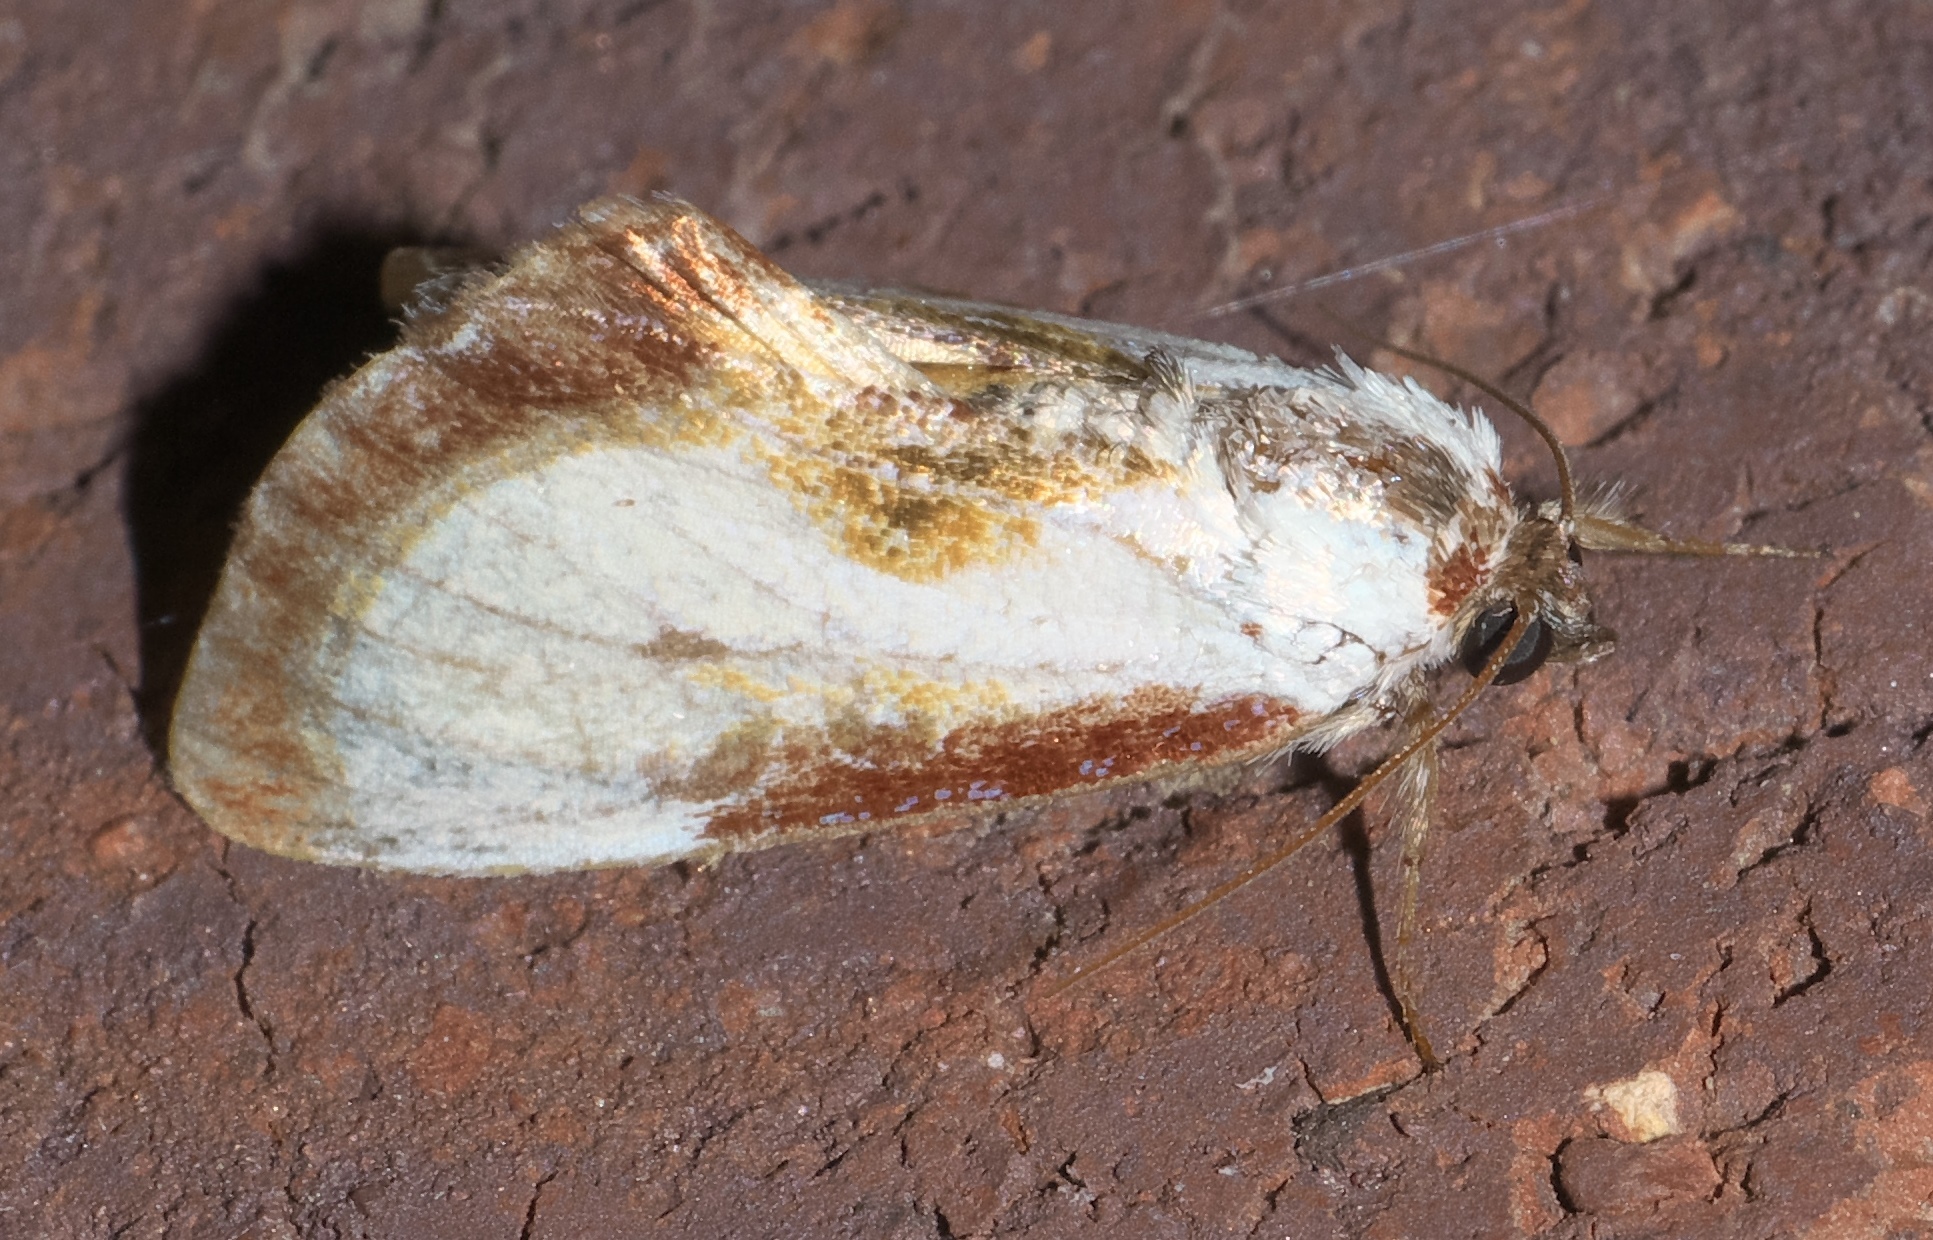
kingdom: Animalia
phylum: Arthropoda
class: Insecta
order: Lepidoptera
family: Noctuidae
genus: Eudryas
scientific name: Eudryas grata
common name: Beautiful wood-nymph
